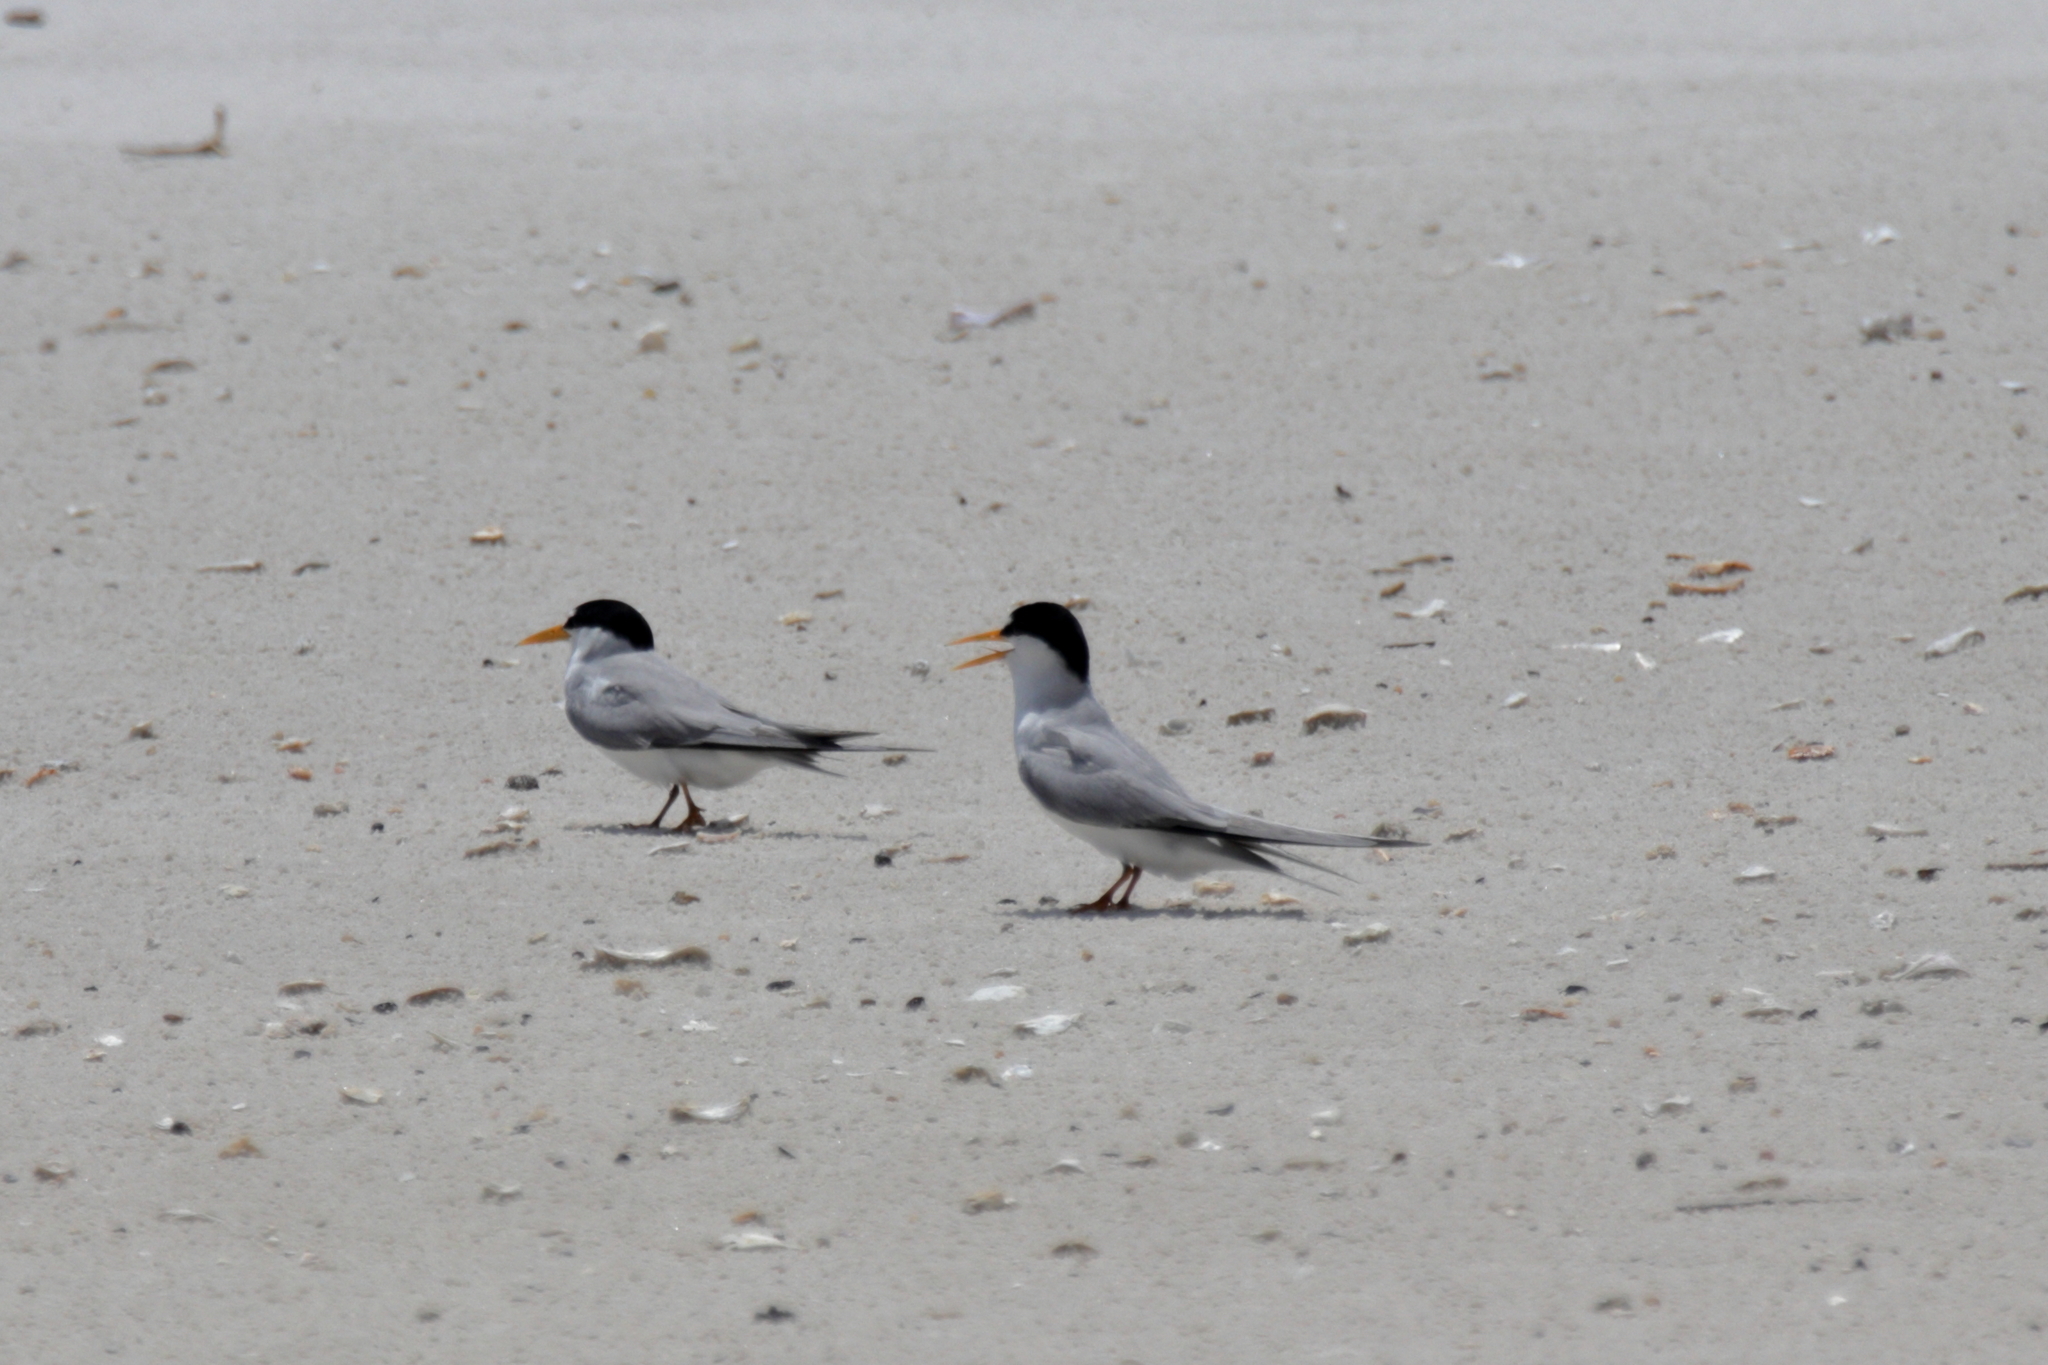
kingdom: Animalia
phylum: Chordata
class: Aves
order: Charadriiformes
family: Laridae
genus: Sternula
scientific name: Sternula antillarum
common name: Least tern
